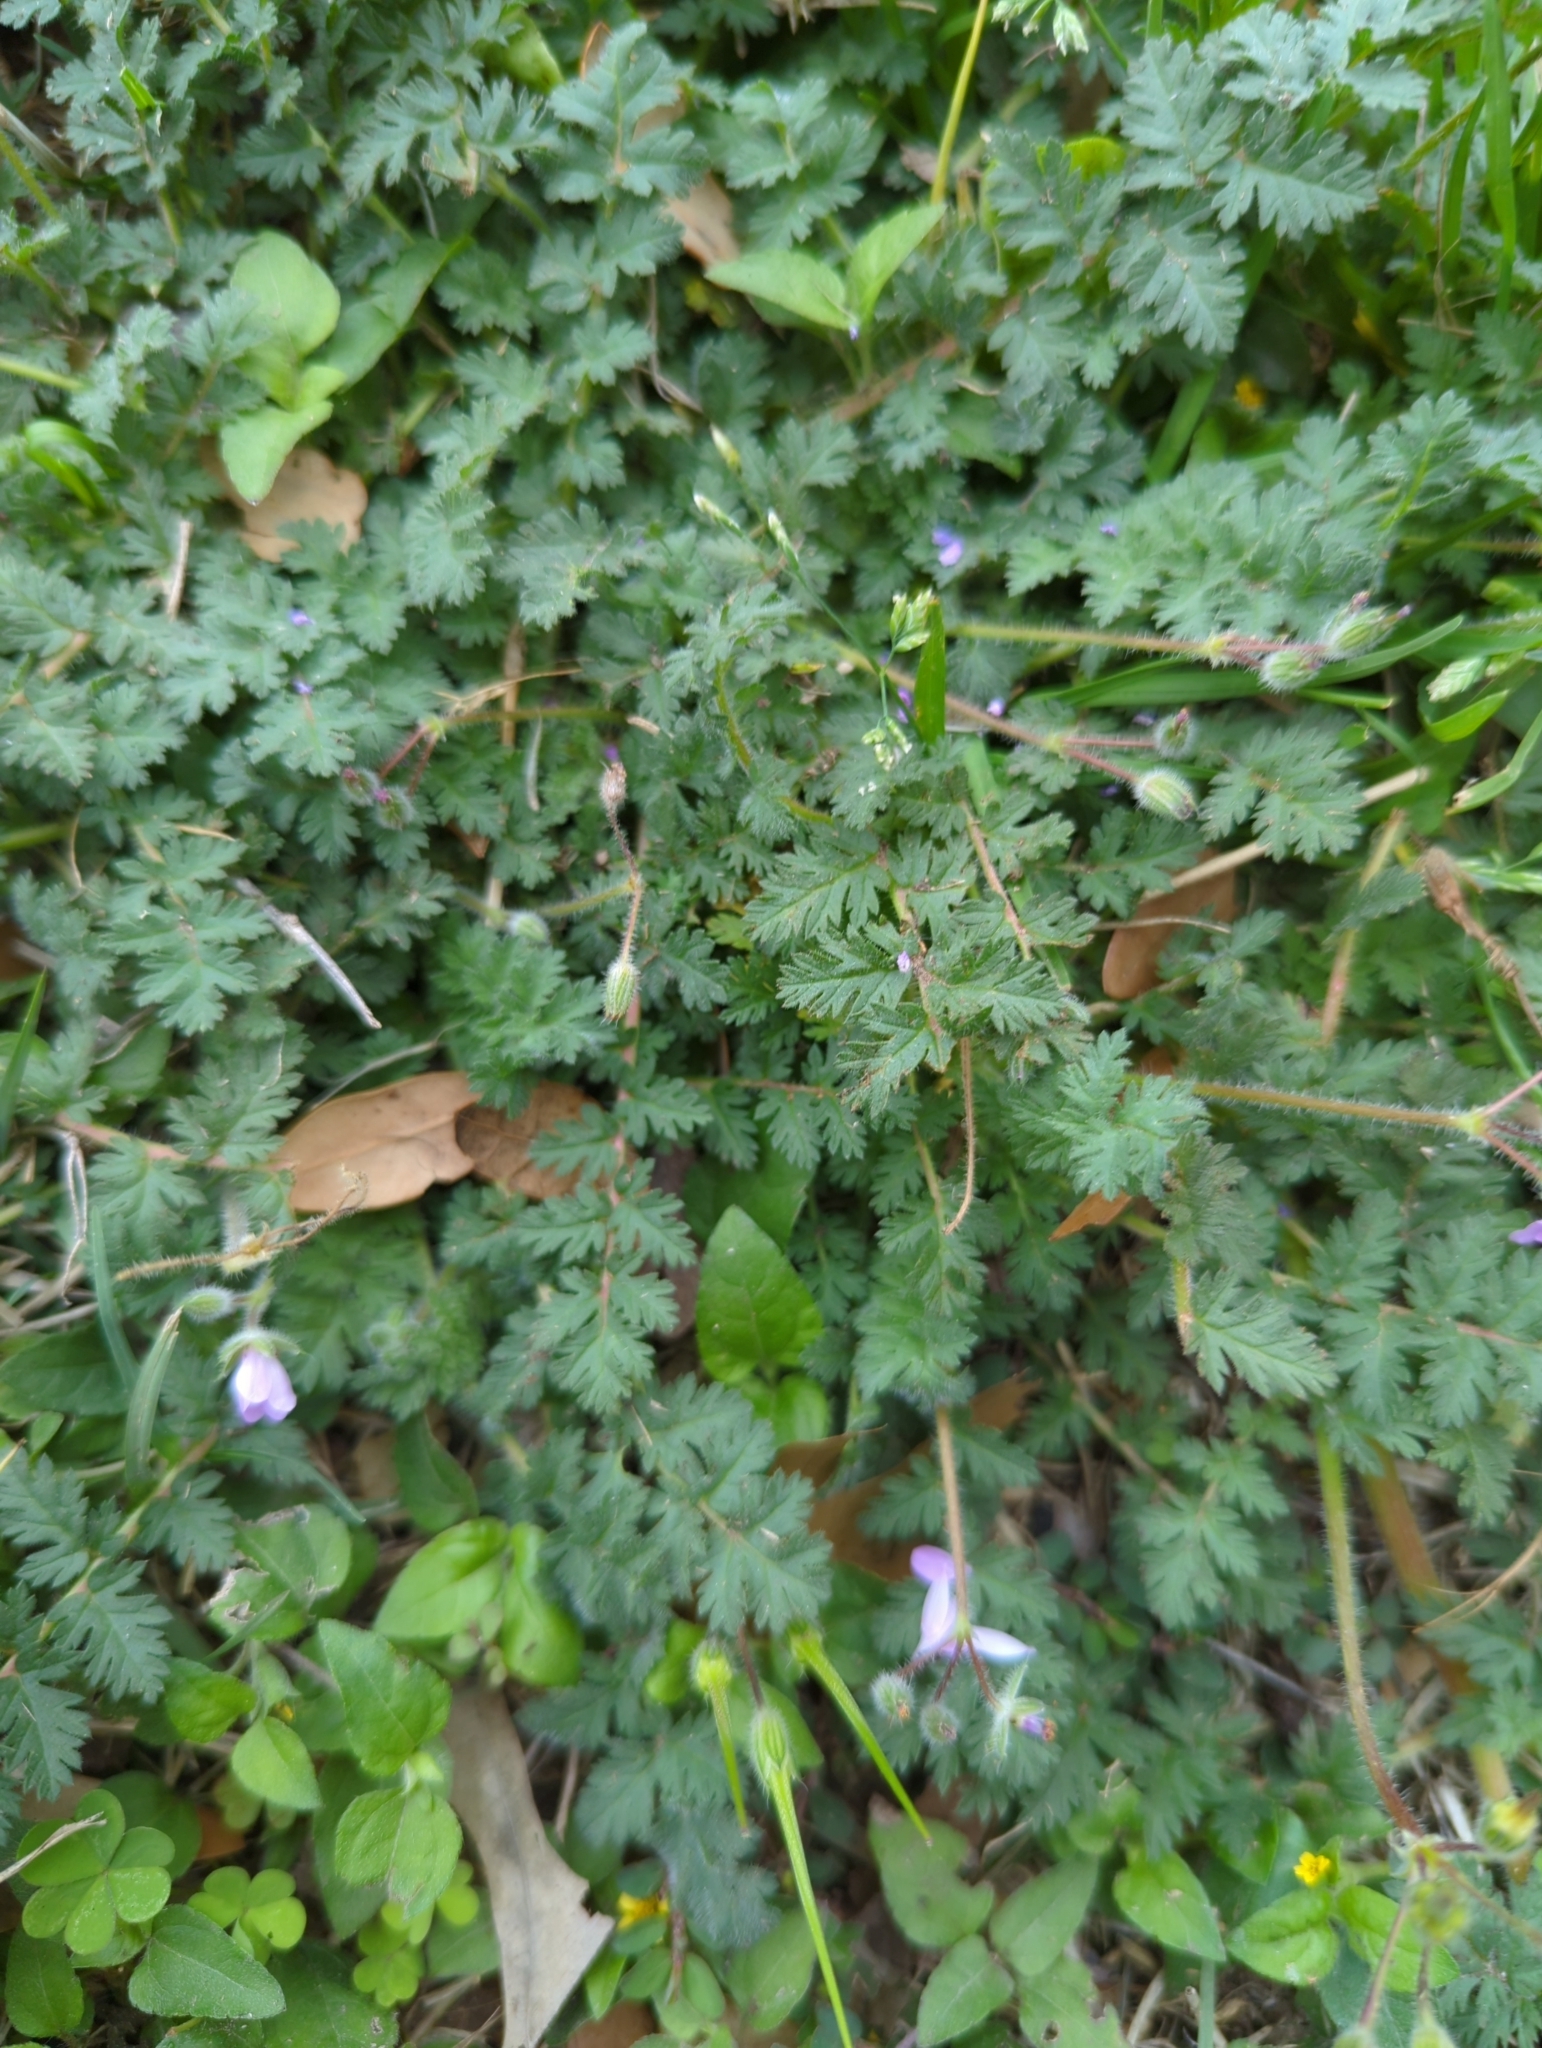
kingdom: Plantae
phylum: Tracheophyta
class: Magnoliopsida
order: Geraniales
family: Geraniaceae
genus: Erodium
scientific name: Erodium cicutarium
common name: Common stork's-bill
